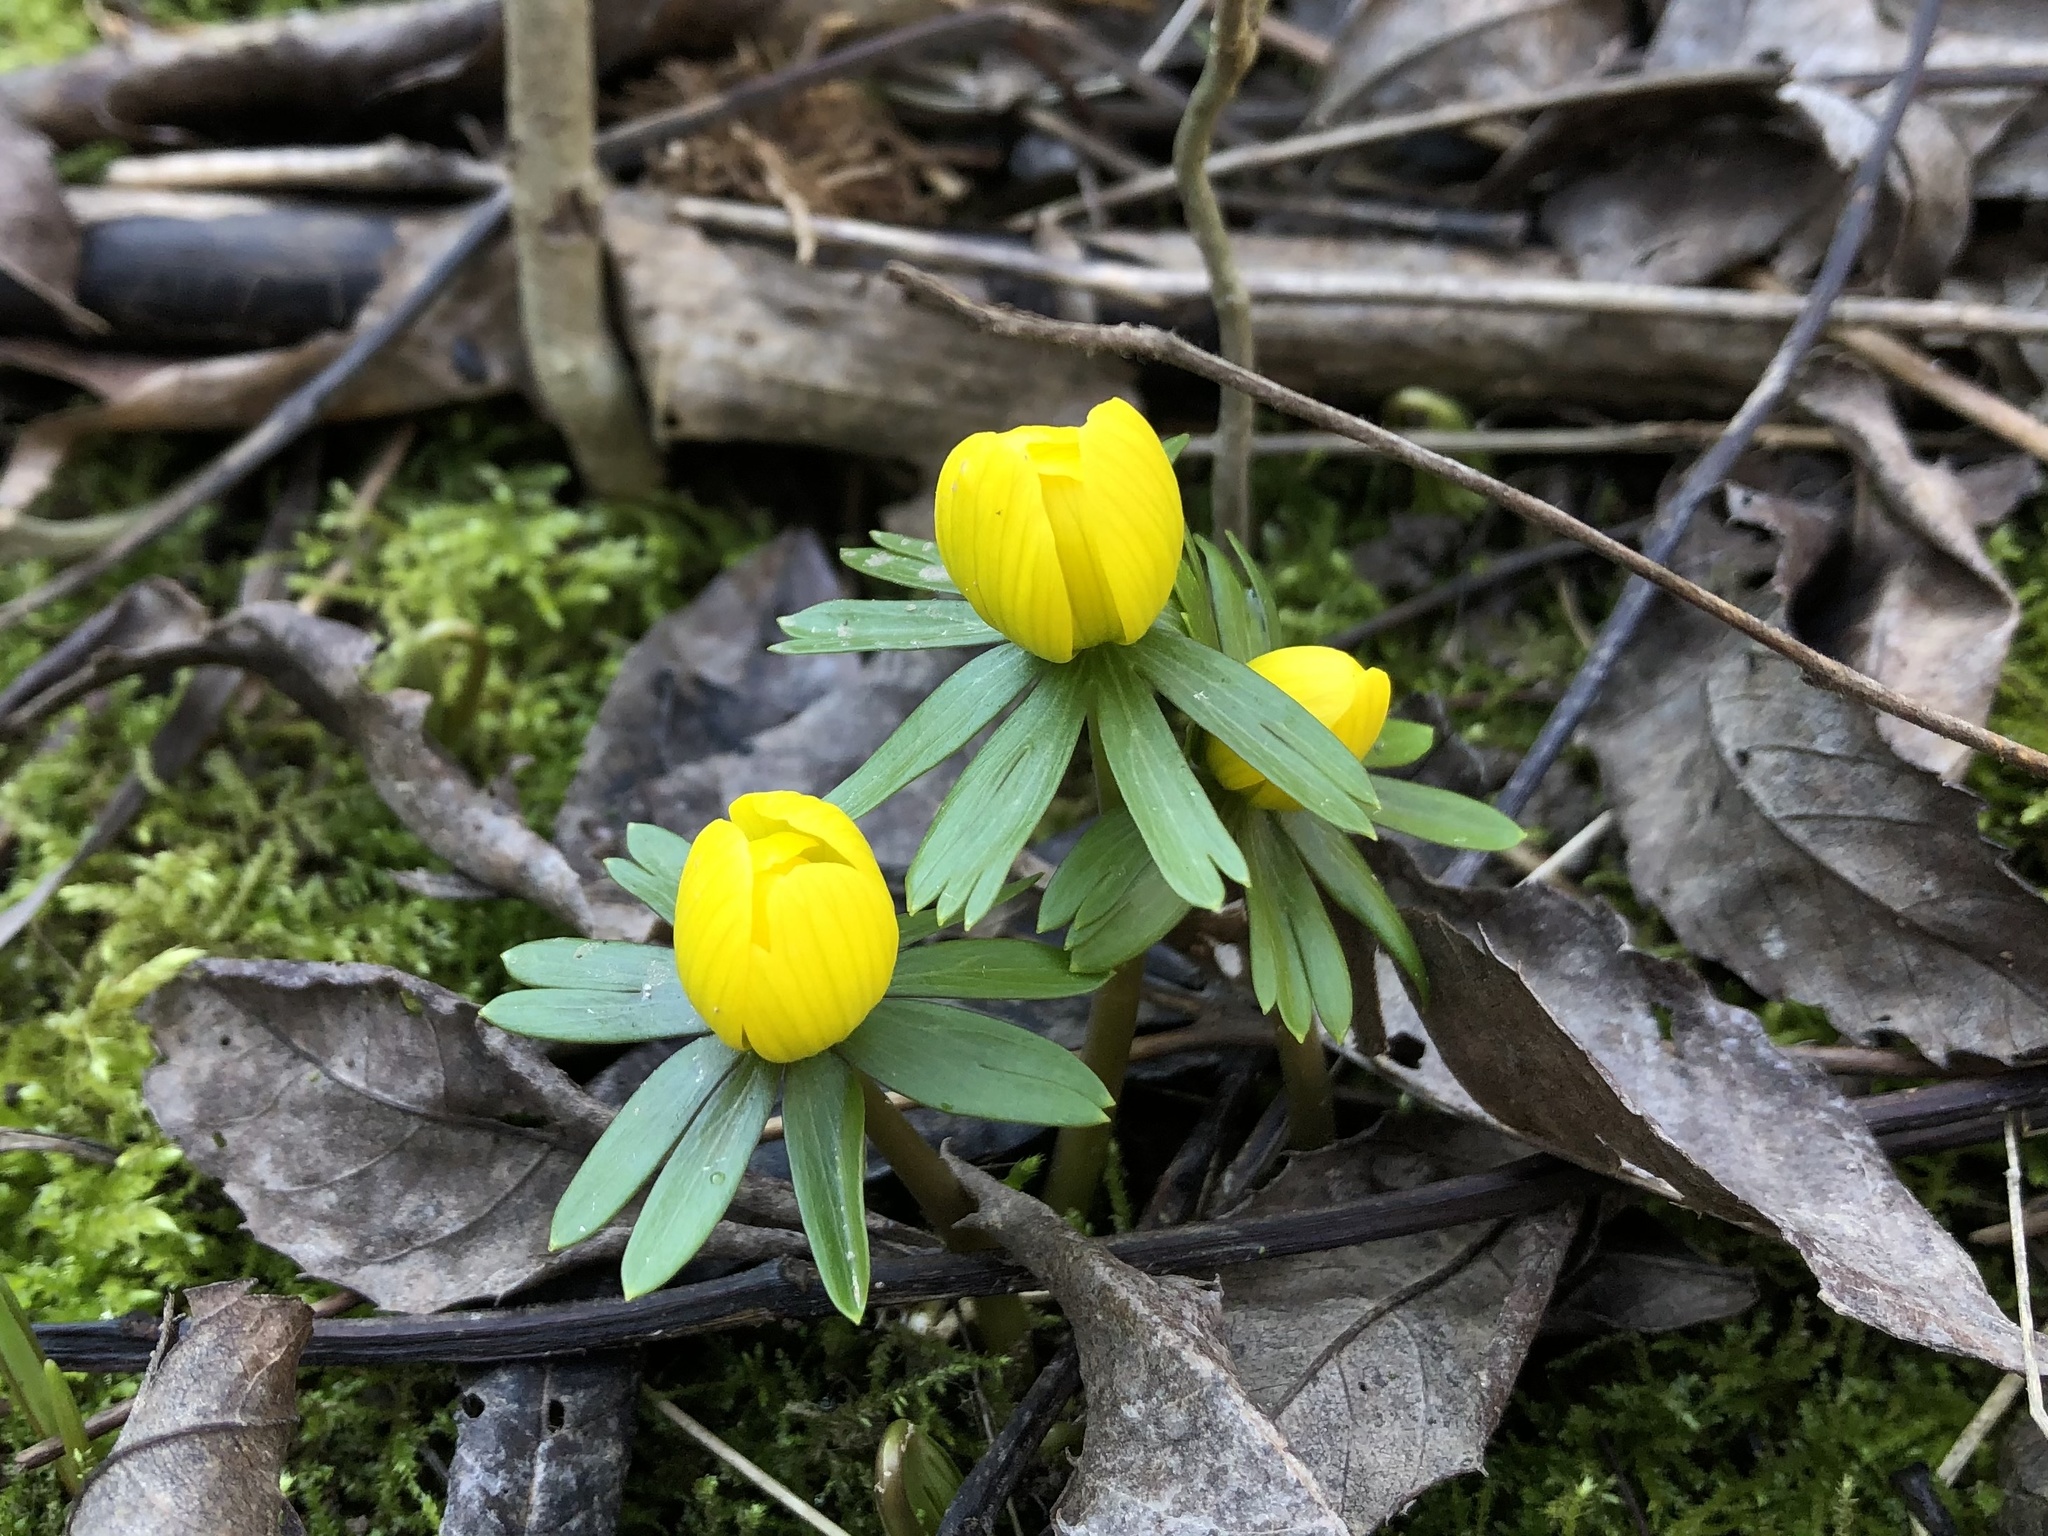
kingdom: Plantae
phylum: Tracheophyta
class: Magnoliopsida
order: Ranunculales
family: Ranunculaceae
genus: Eranthis
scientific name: Eranthis hyemalis
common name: Winter aconite
